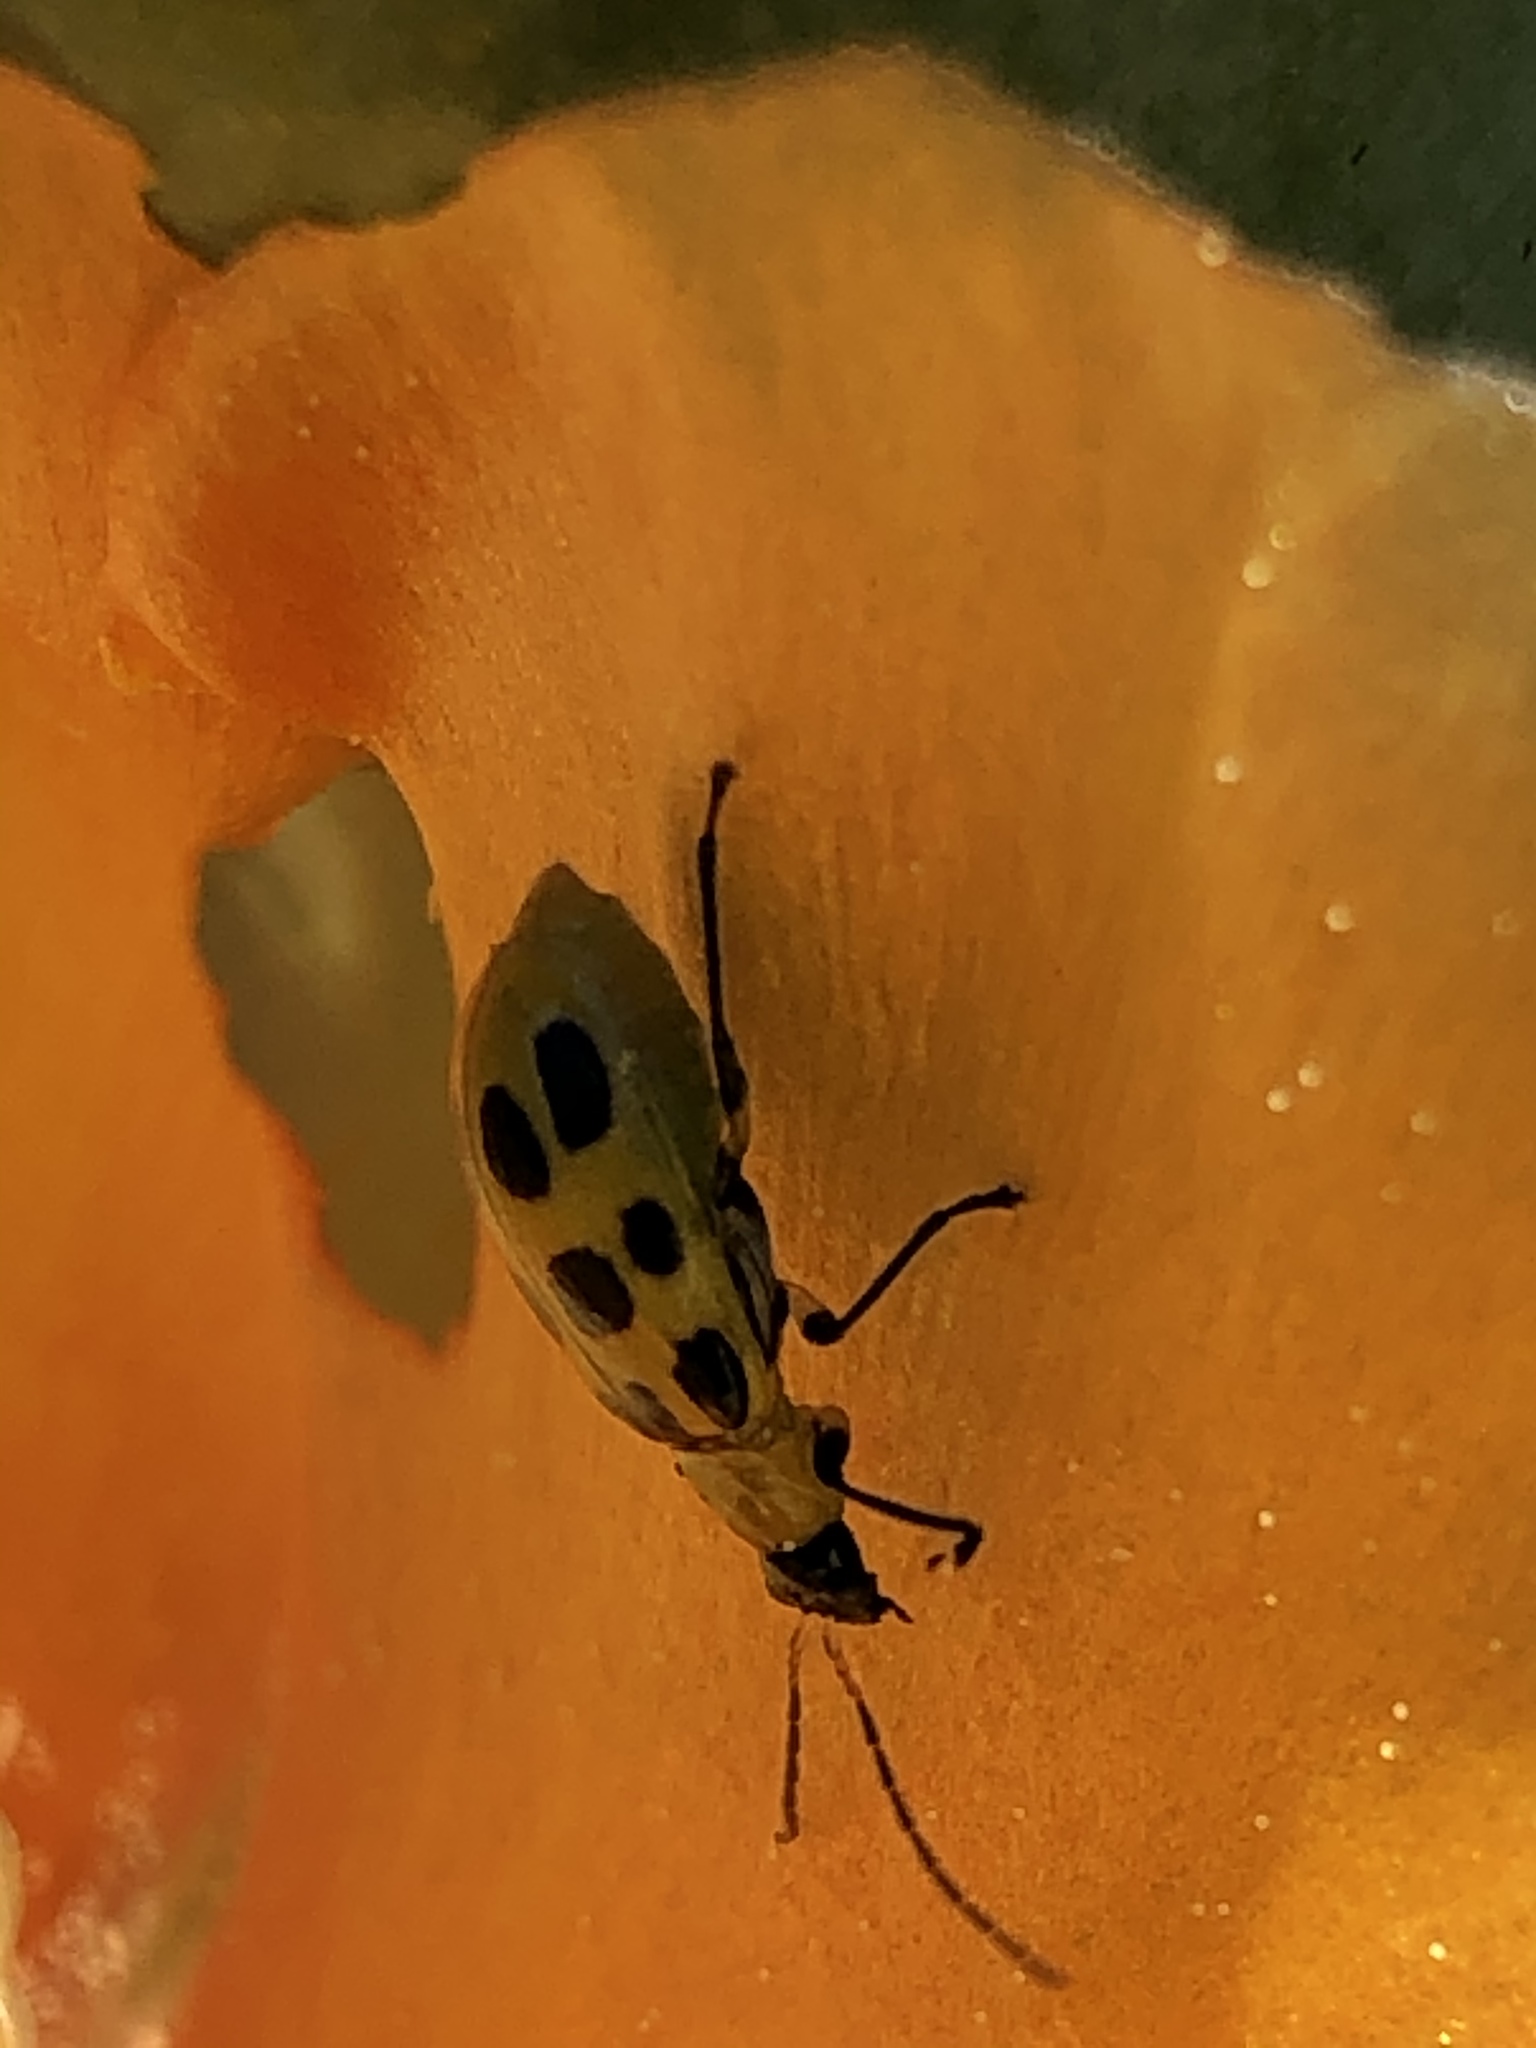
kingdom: Animalia
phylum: Arthropoda
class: Insecta
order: Coleoptera
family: Chrysomelidae
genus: Diabrotica
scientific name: Diabrotica undecimpunctata
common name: Spotted cucumber beetle
